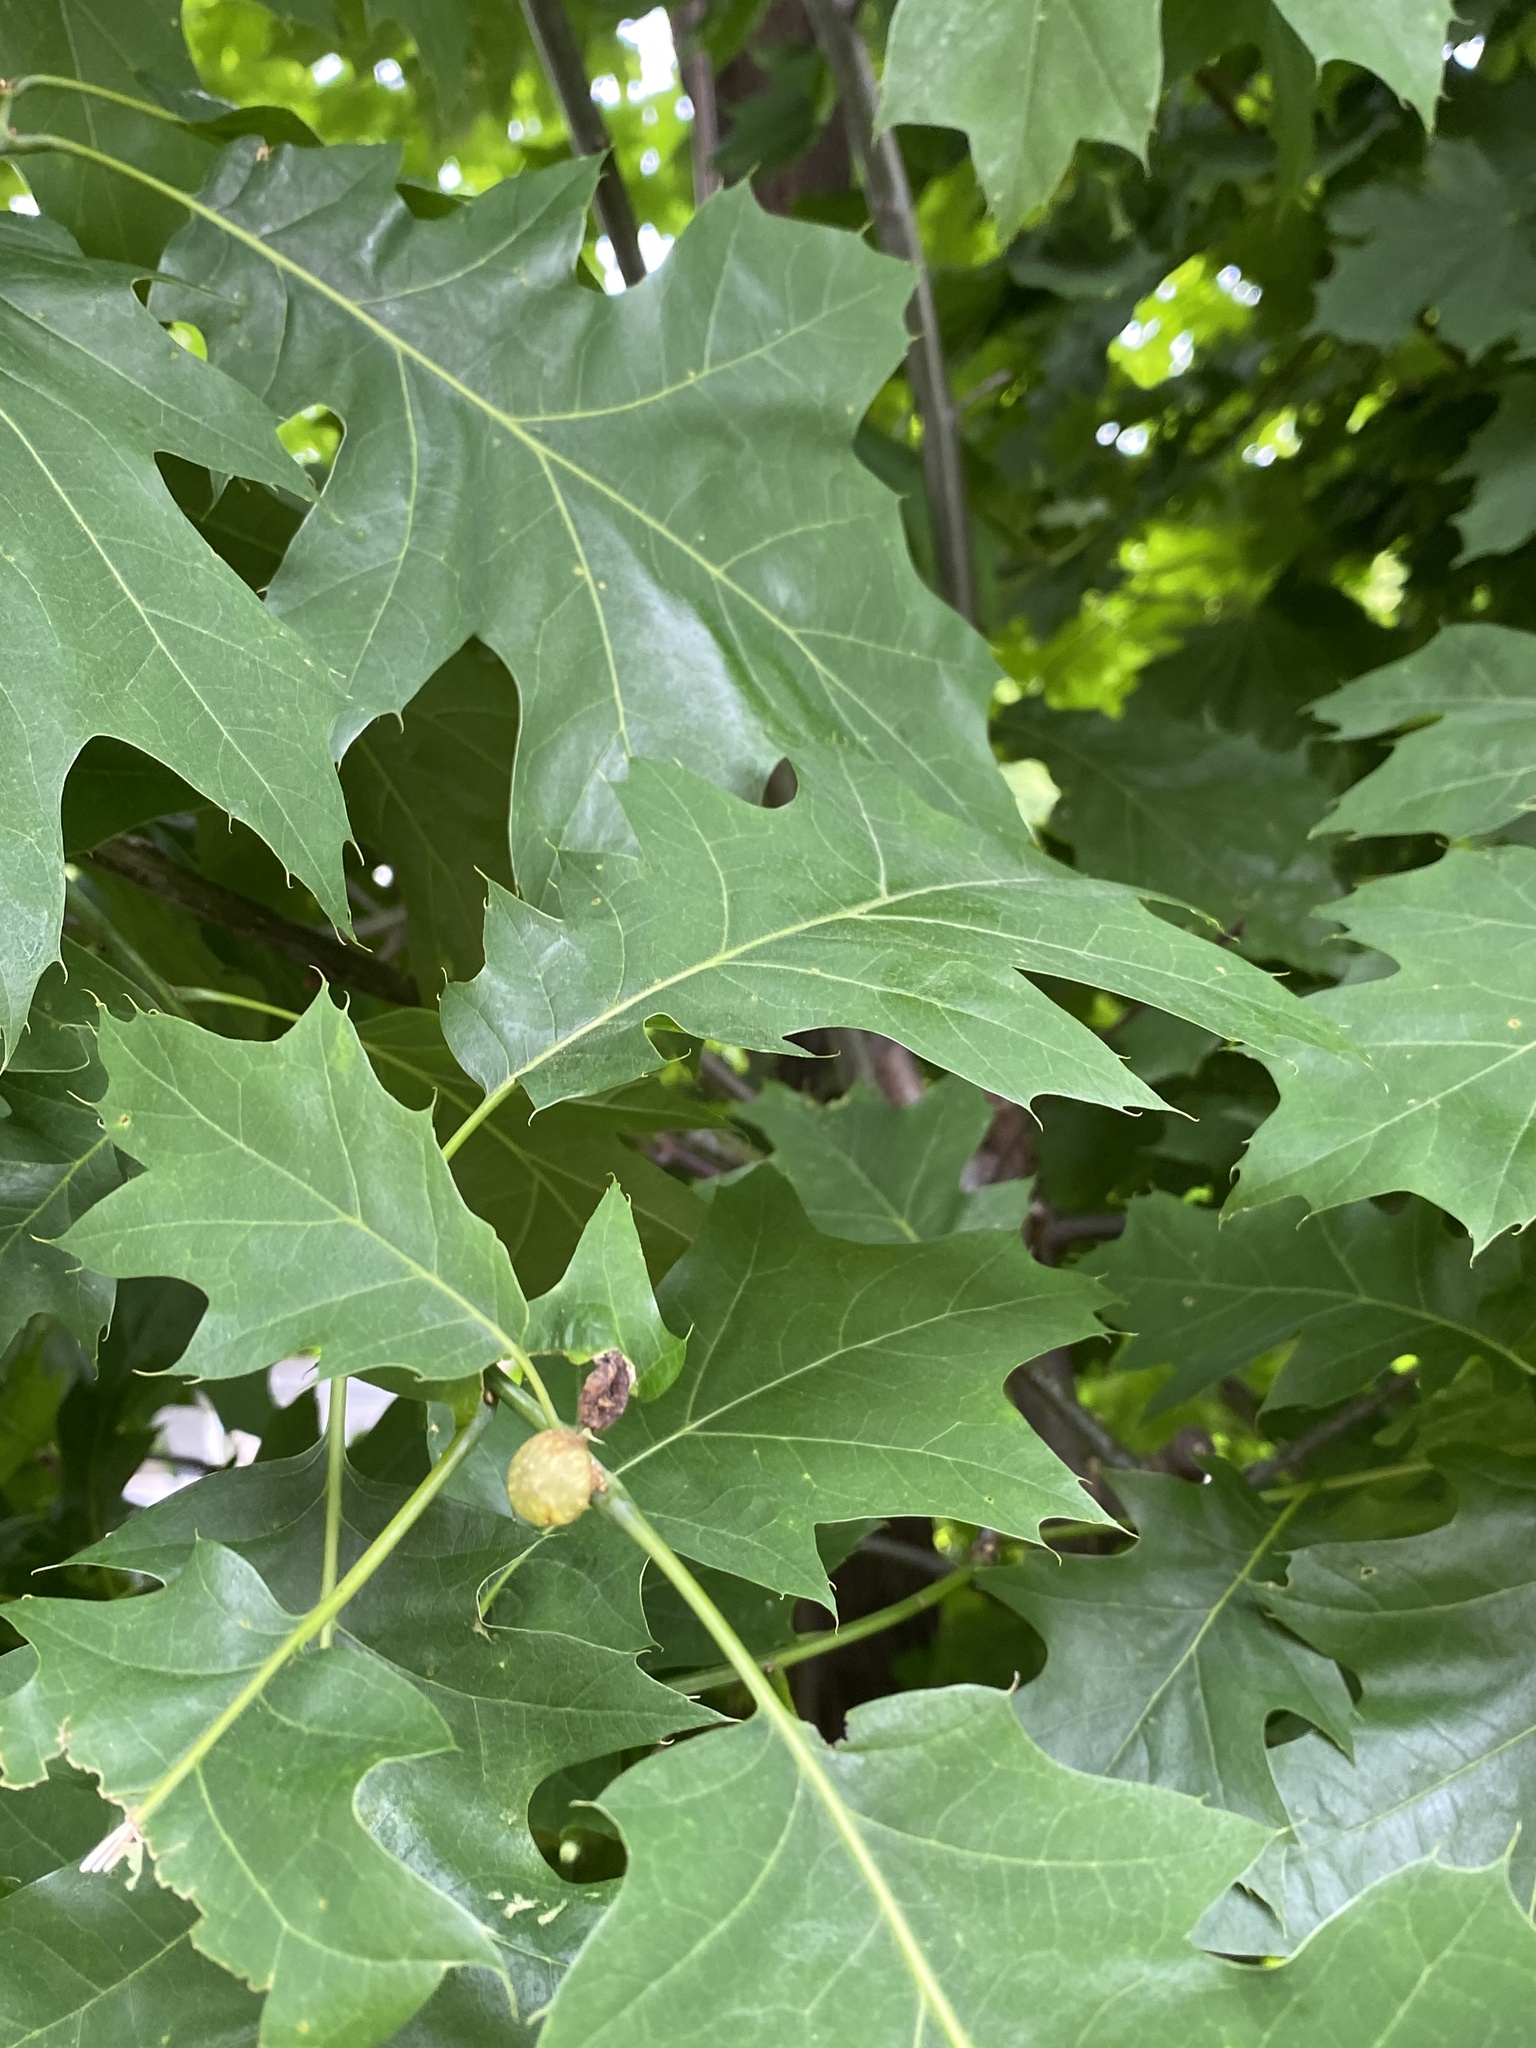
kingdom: Animalia
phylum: Arthropoda
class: Insecta
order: Hymenoptera
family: Cynipidae
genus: Dryocosmus
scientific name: Dryocosmus quercuspalustris
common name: Succulent oak gall wasp
